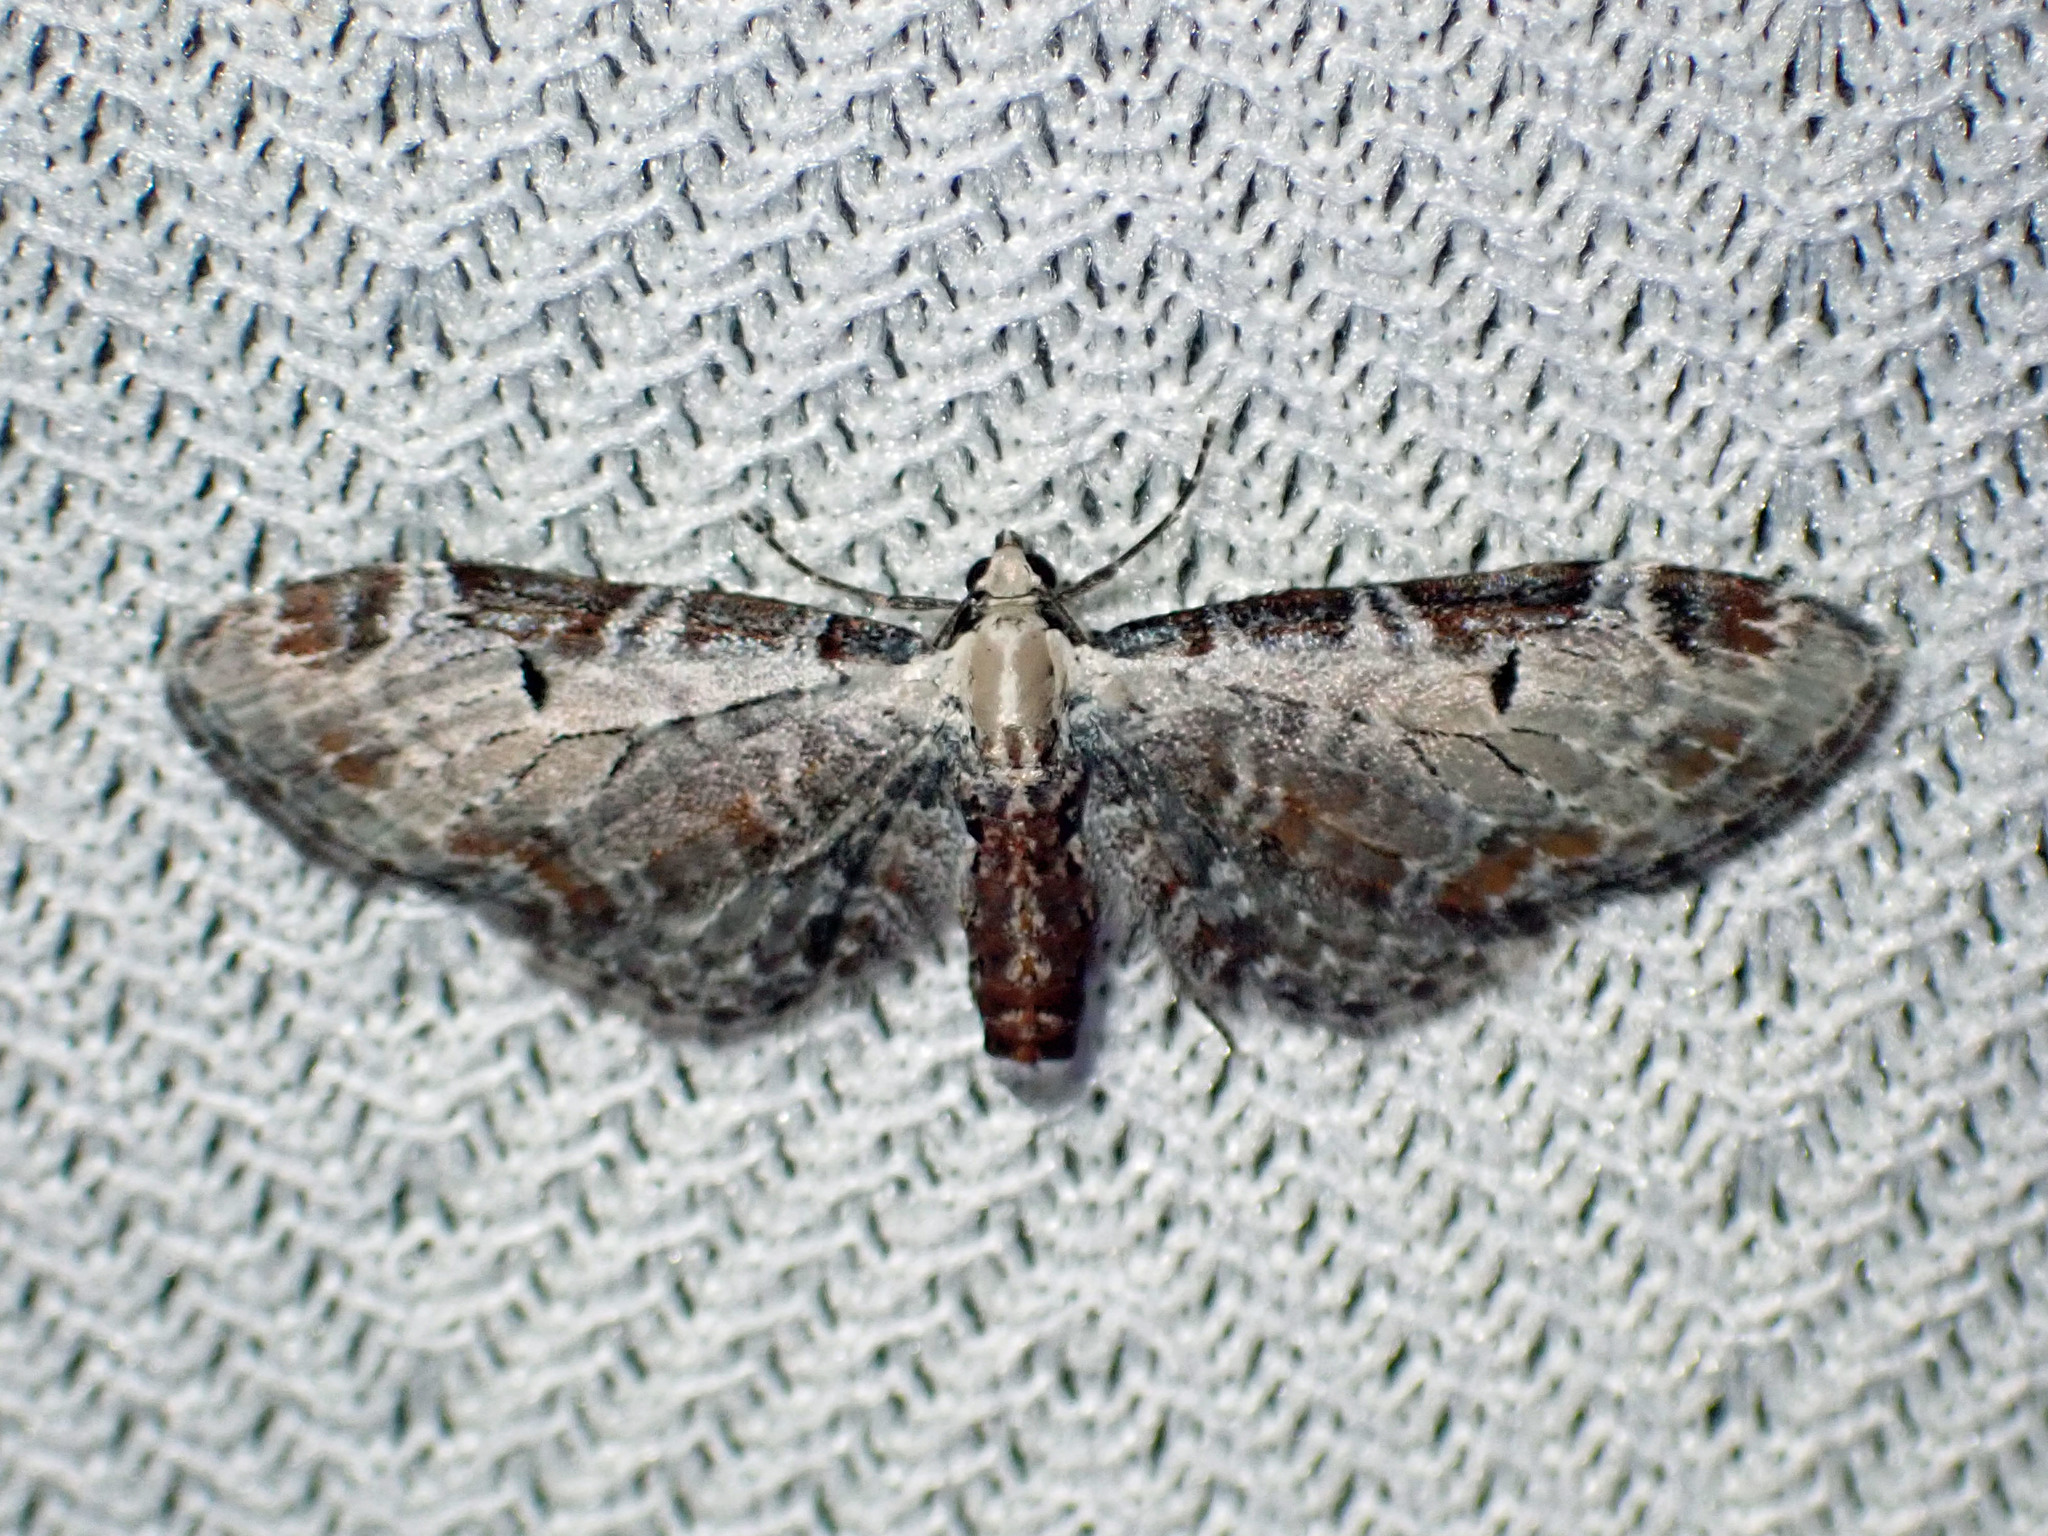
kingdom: Animalia
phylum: Arthropoda
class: Insecta
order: Lepidoptera
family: Geometridae
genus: Eupithecia
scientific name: Eupithecia ravocostaliata
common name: Great varigated pug
